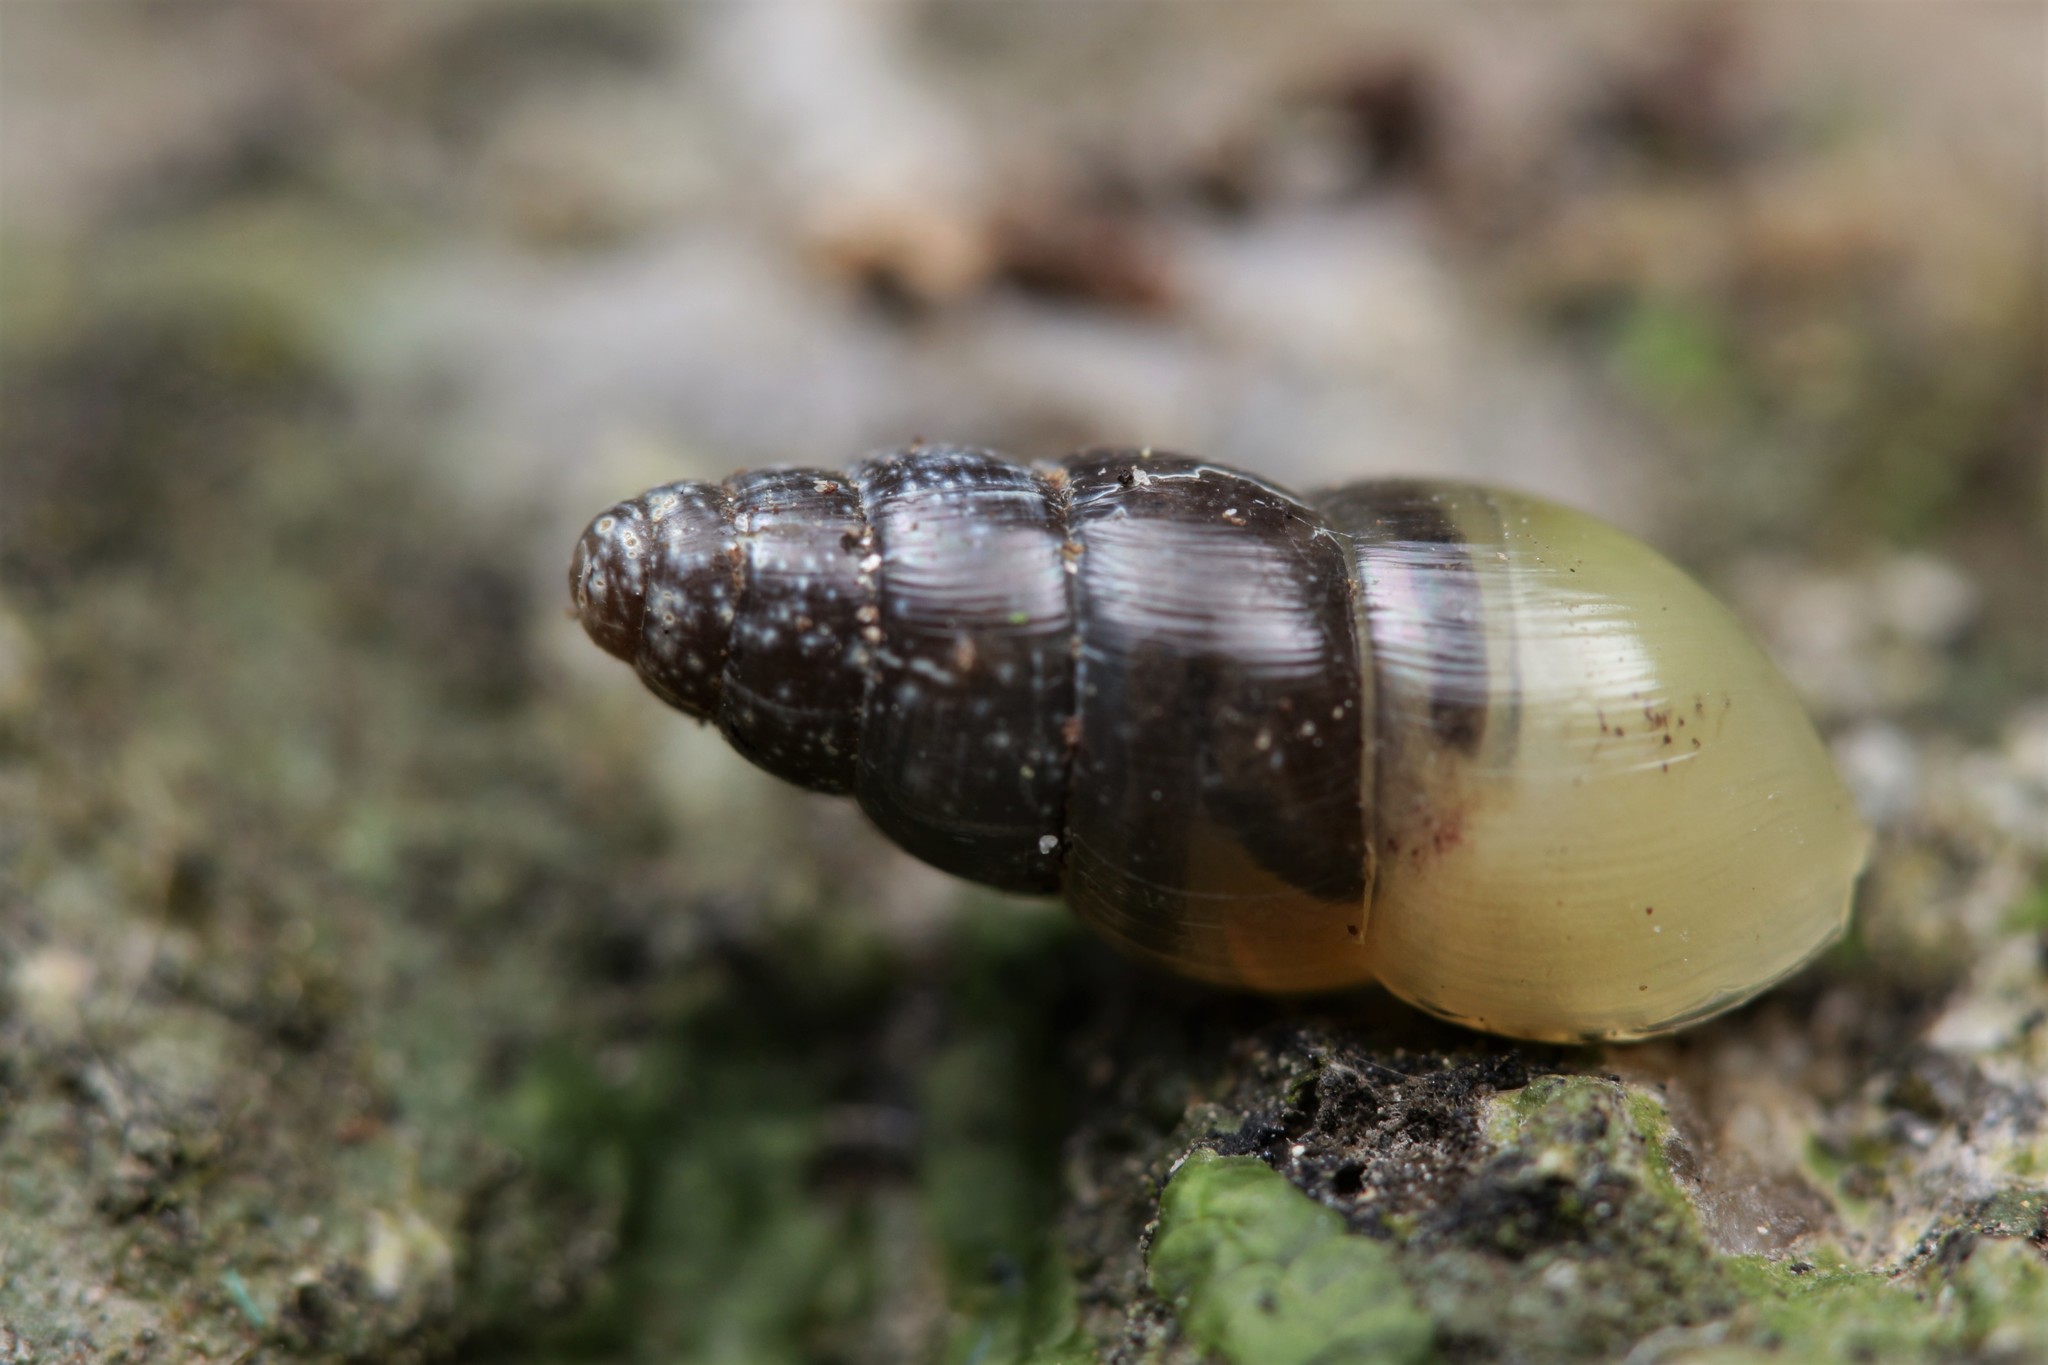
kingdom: Animalia
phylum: Mollusca
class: Gastropoda
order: Stylommatophora
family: Achatinidae
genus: Allopeas
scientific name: Allopeas clavulinum
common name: Spike awlsnail
